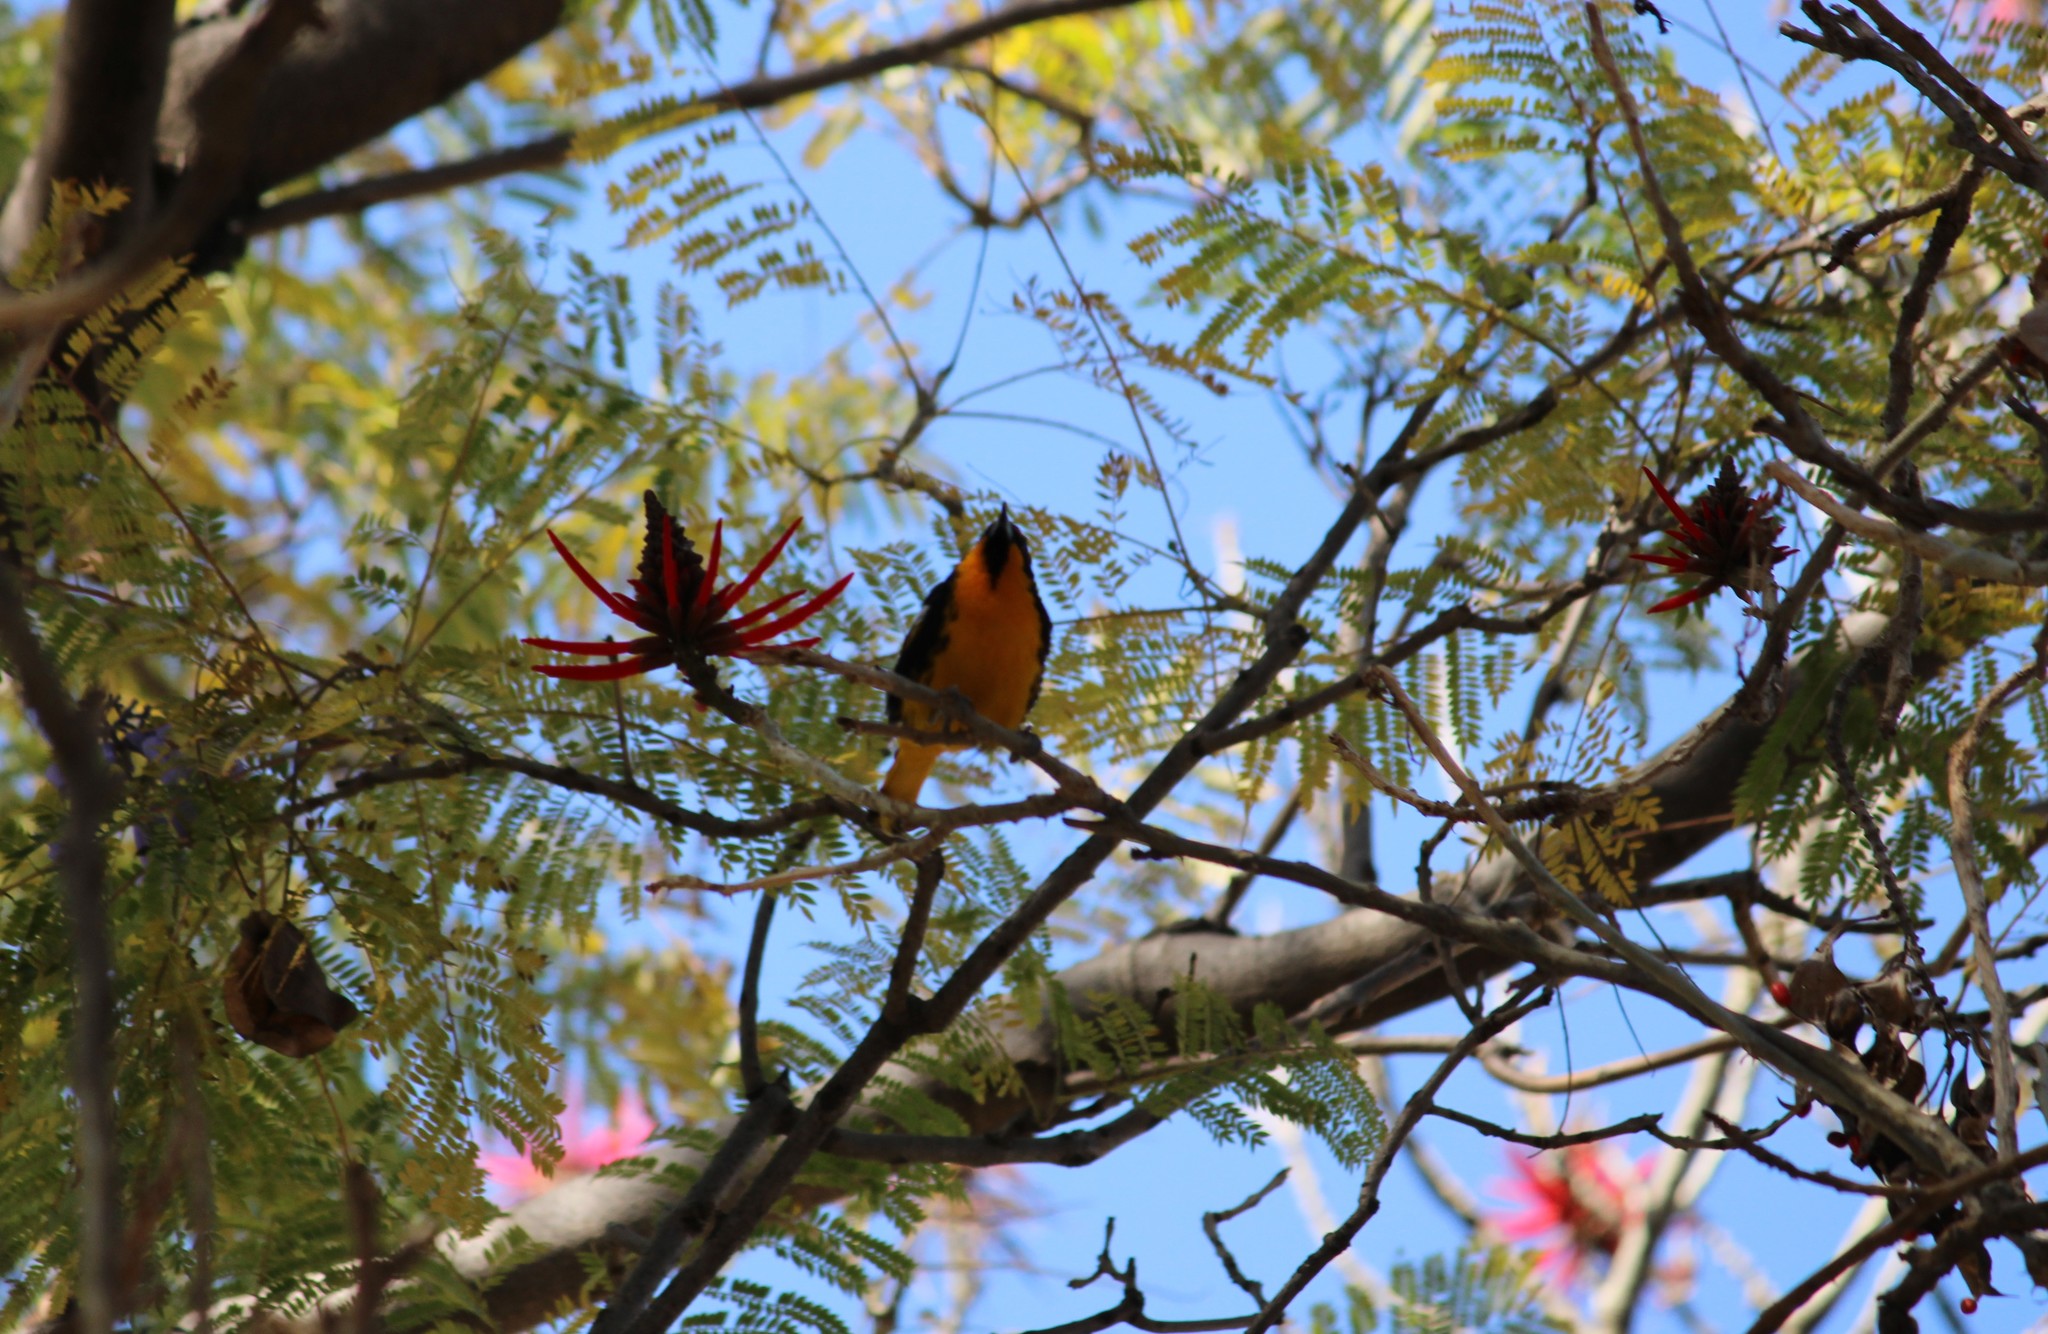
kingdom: Animalia
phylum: Chordata
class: Aves
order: Passeriformes
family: Icteridae
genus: Icterus
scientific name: Icterus abeillei
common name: Black-backed oriole
